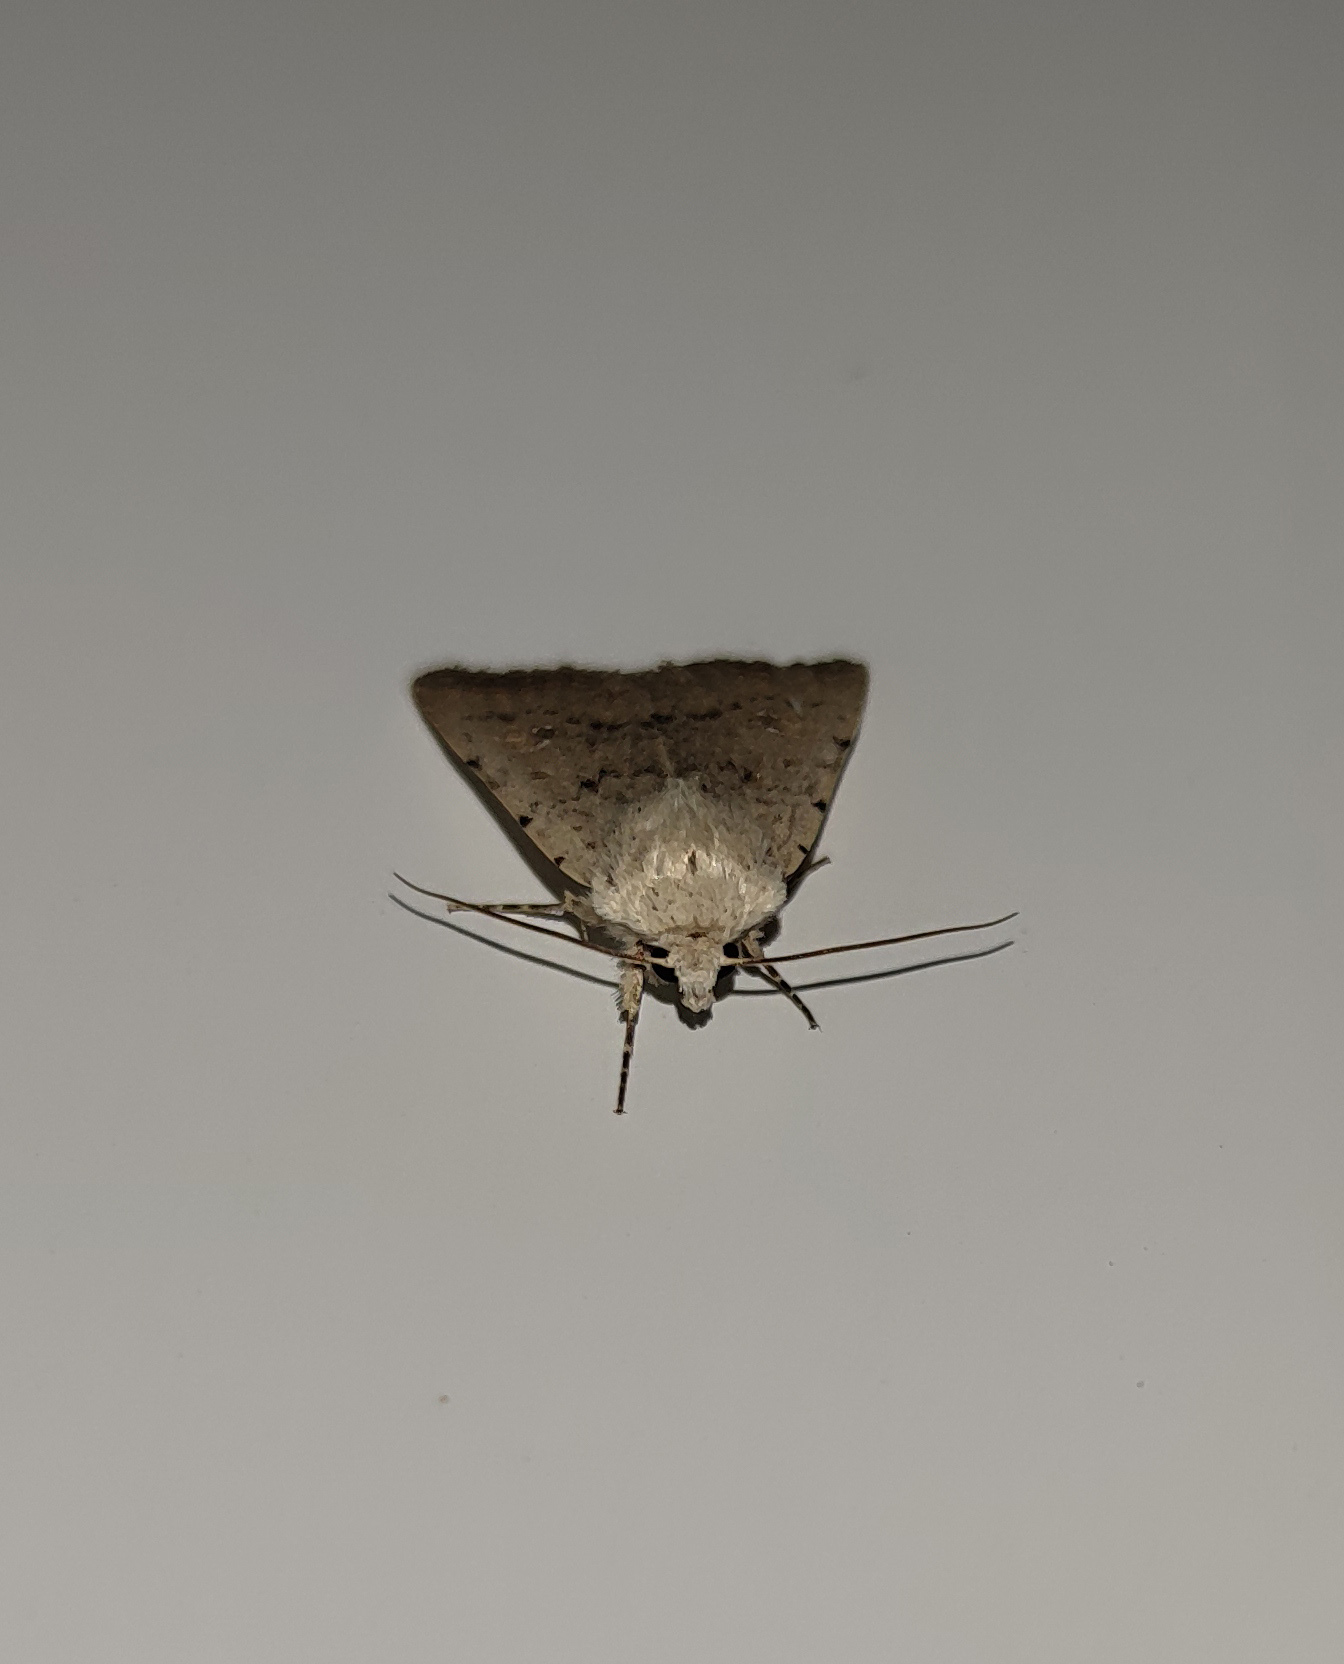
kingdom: Animalia
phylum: Arthropoda
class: Insecta
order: Lepidoptera
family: Noctuidae
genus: Caradrina
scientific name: Caradrina clavipalpis
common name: Pale mottled willow
